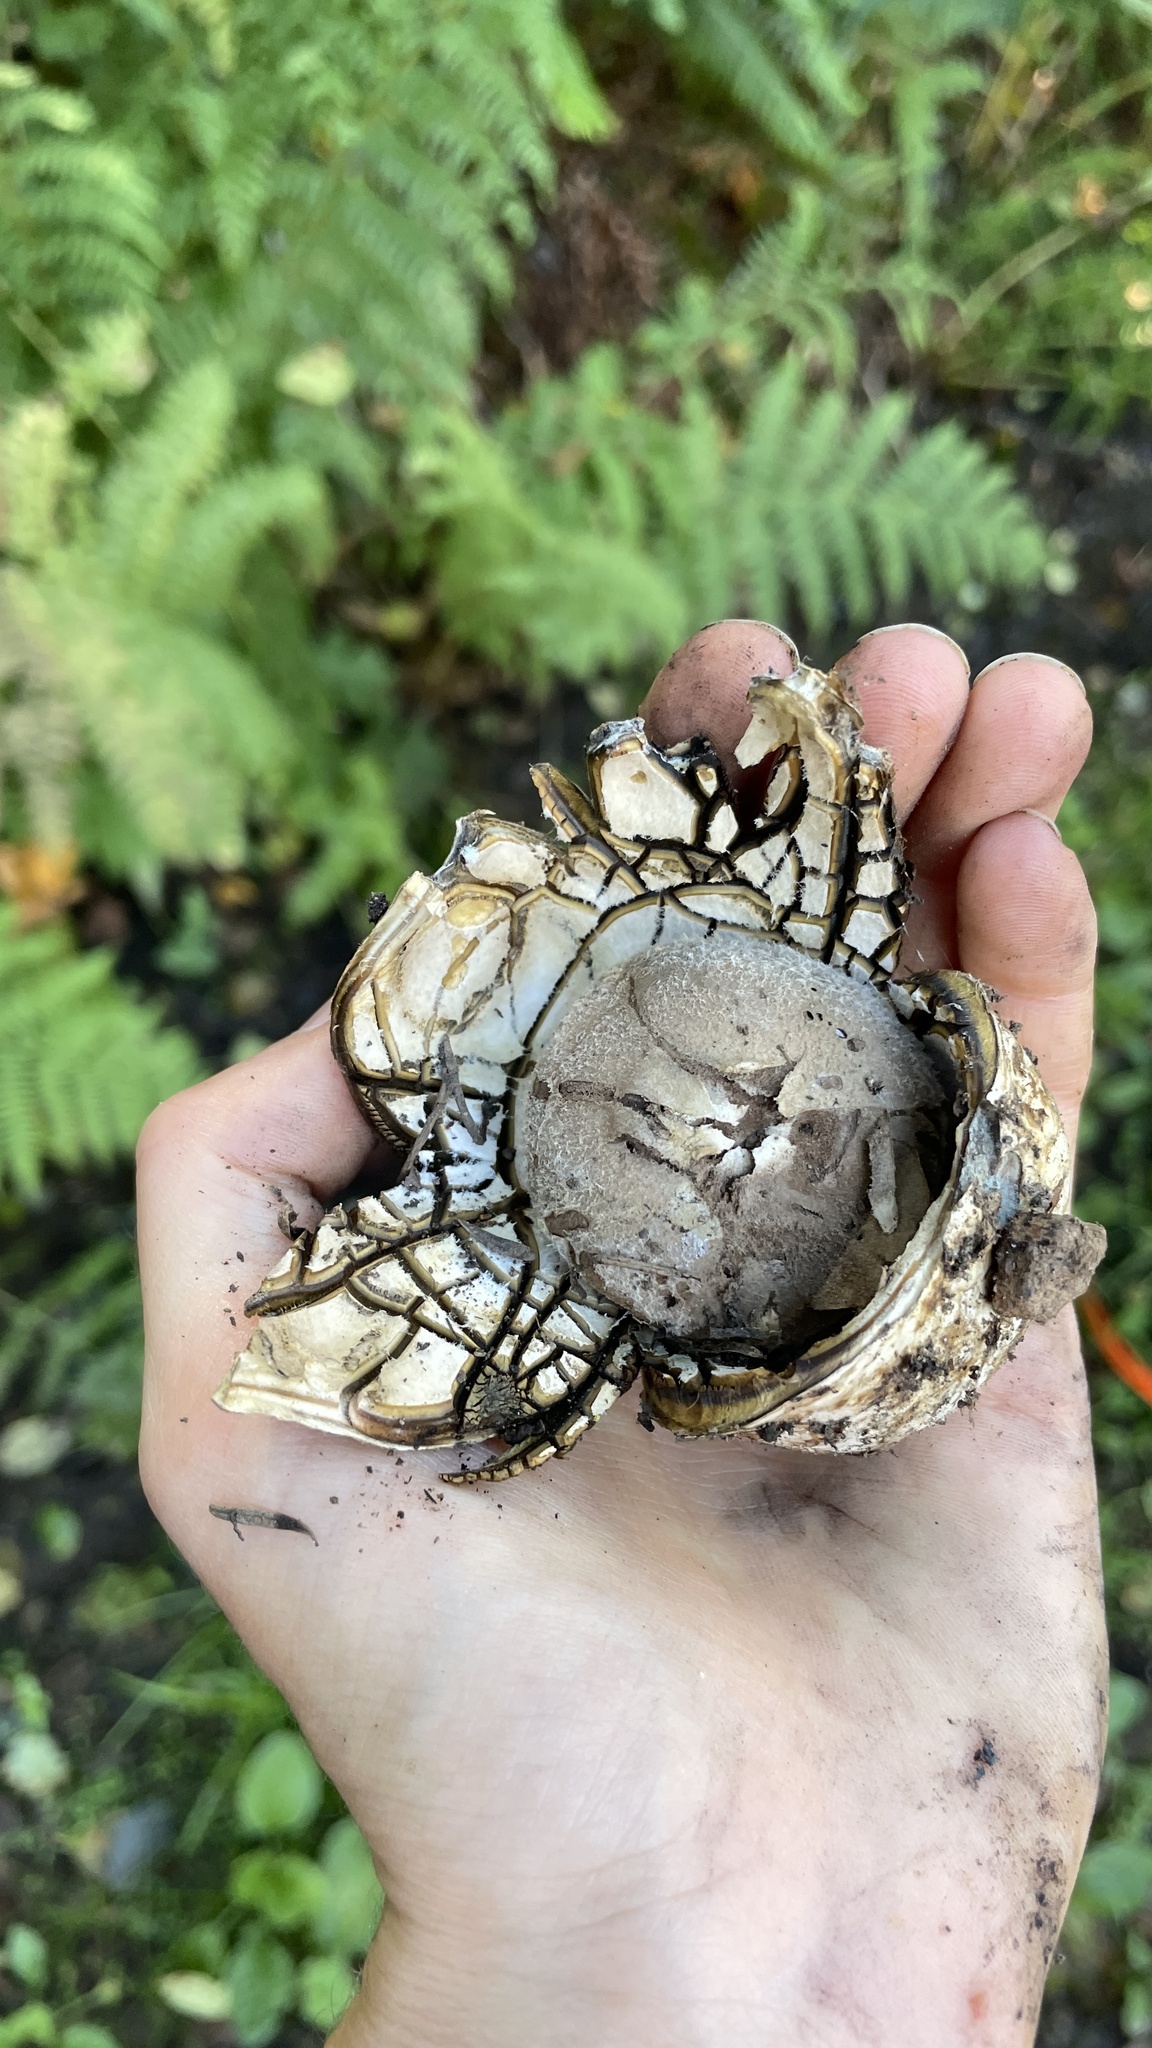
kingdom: Fungi
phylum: Basidiomycota
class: Agaricomycetes
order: Boletales
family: Diplocystidiaceae
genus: Astraeus
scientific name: Astraeus pteridis
